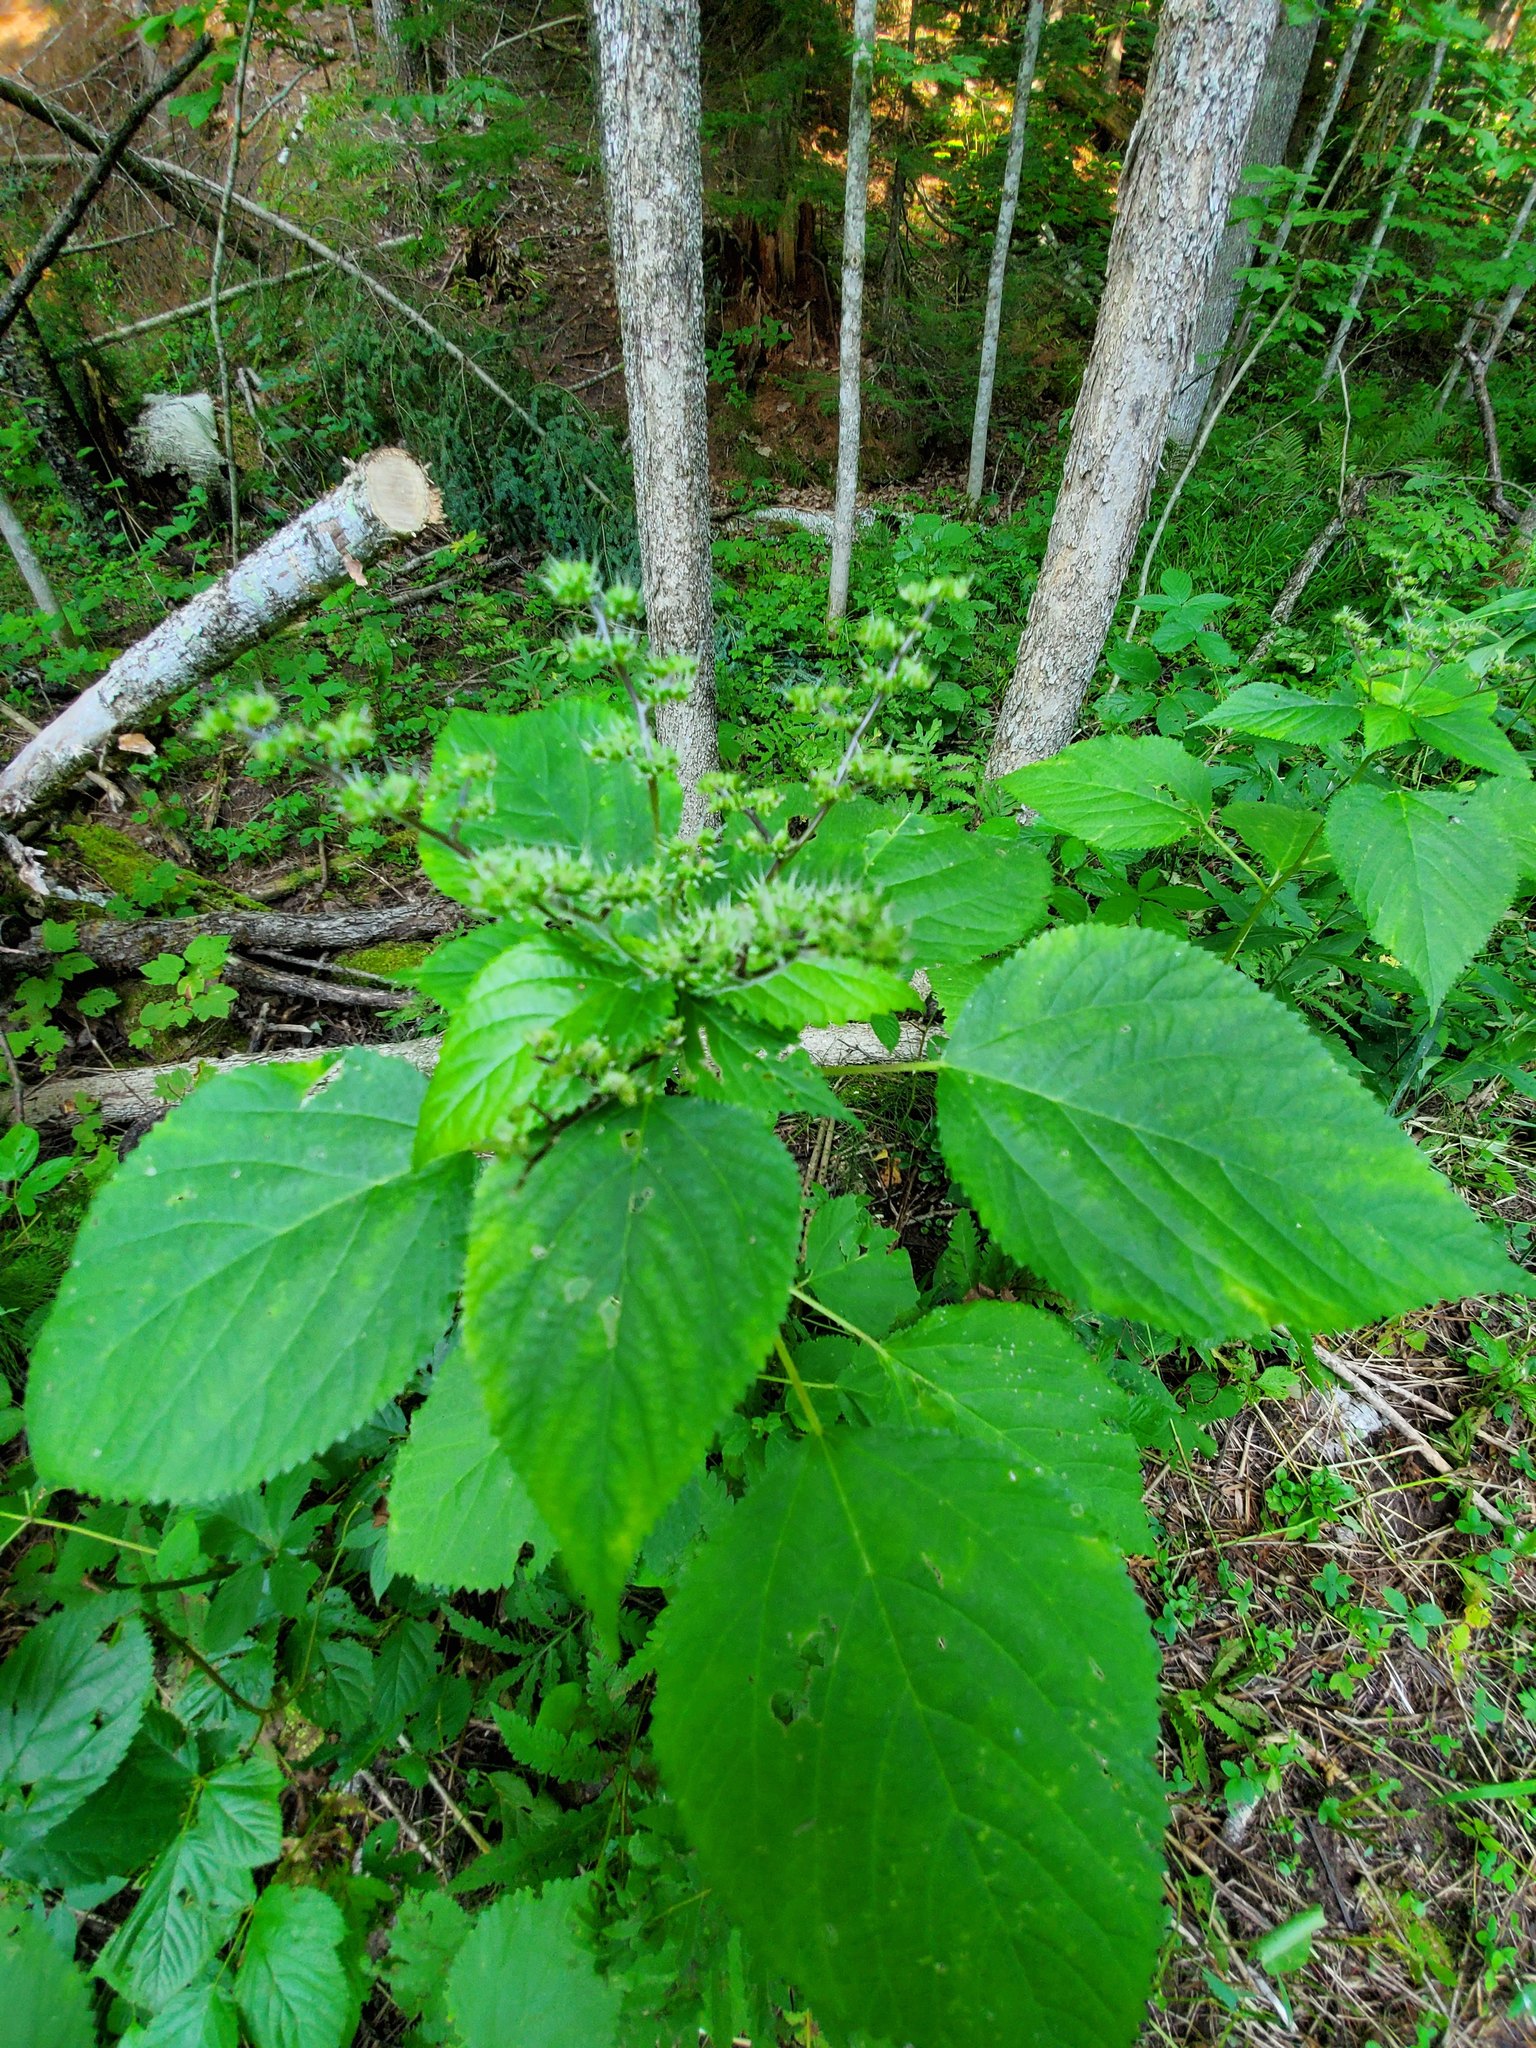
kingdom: Plantae
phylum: Tracheophyta
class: Magnoliopsida
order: Rosales
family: Urticaceae
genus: Laportea
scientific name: Laportea canadensis
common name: Canada nettle
